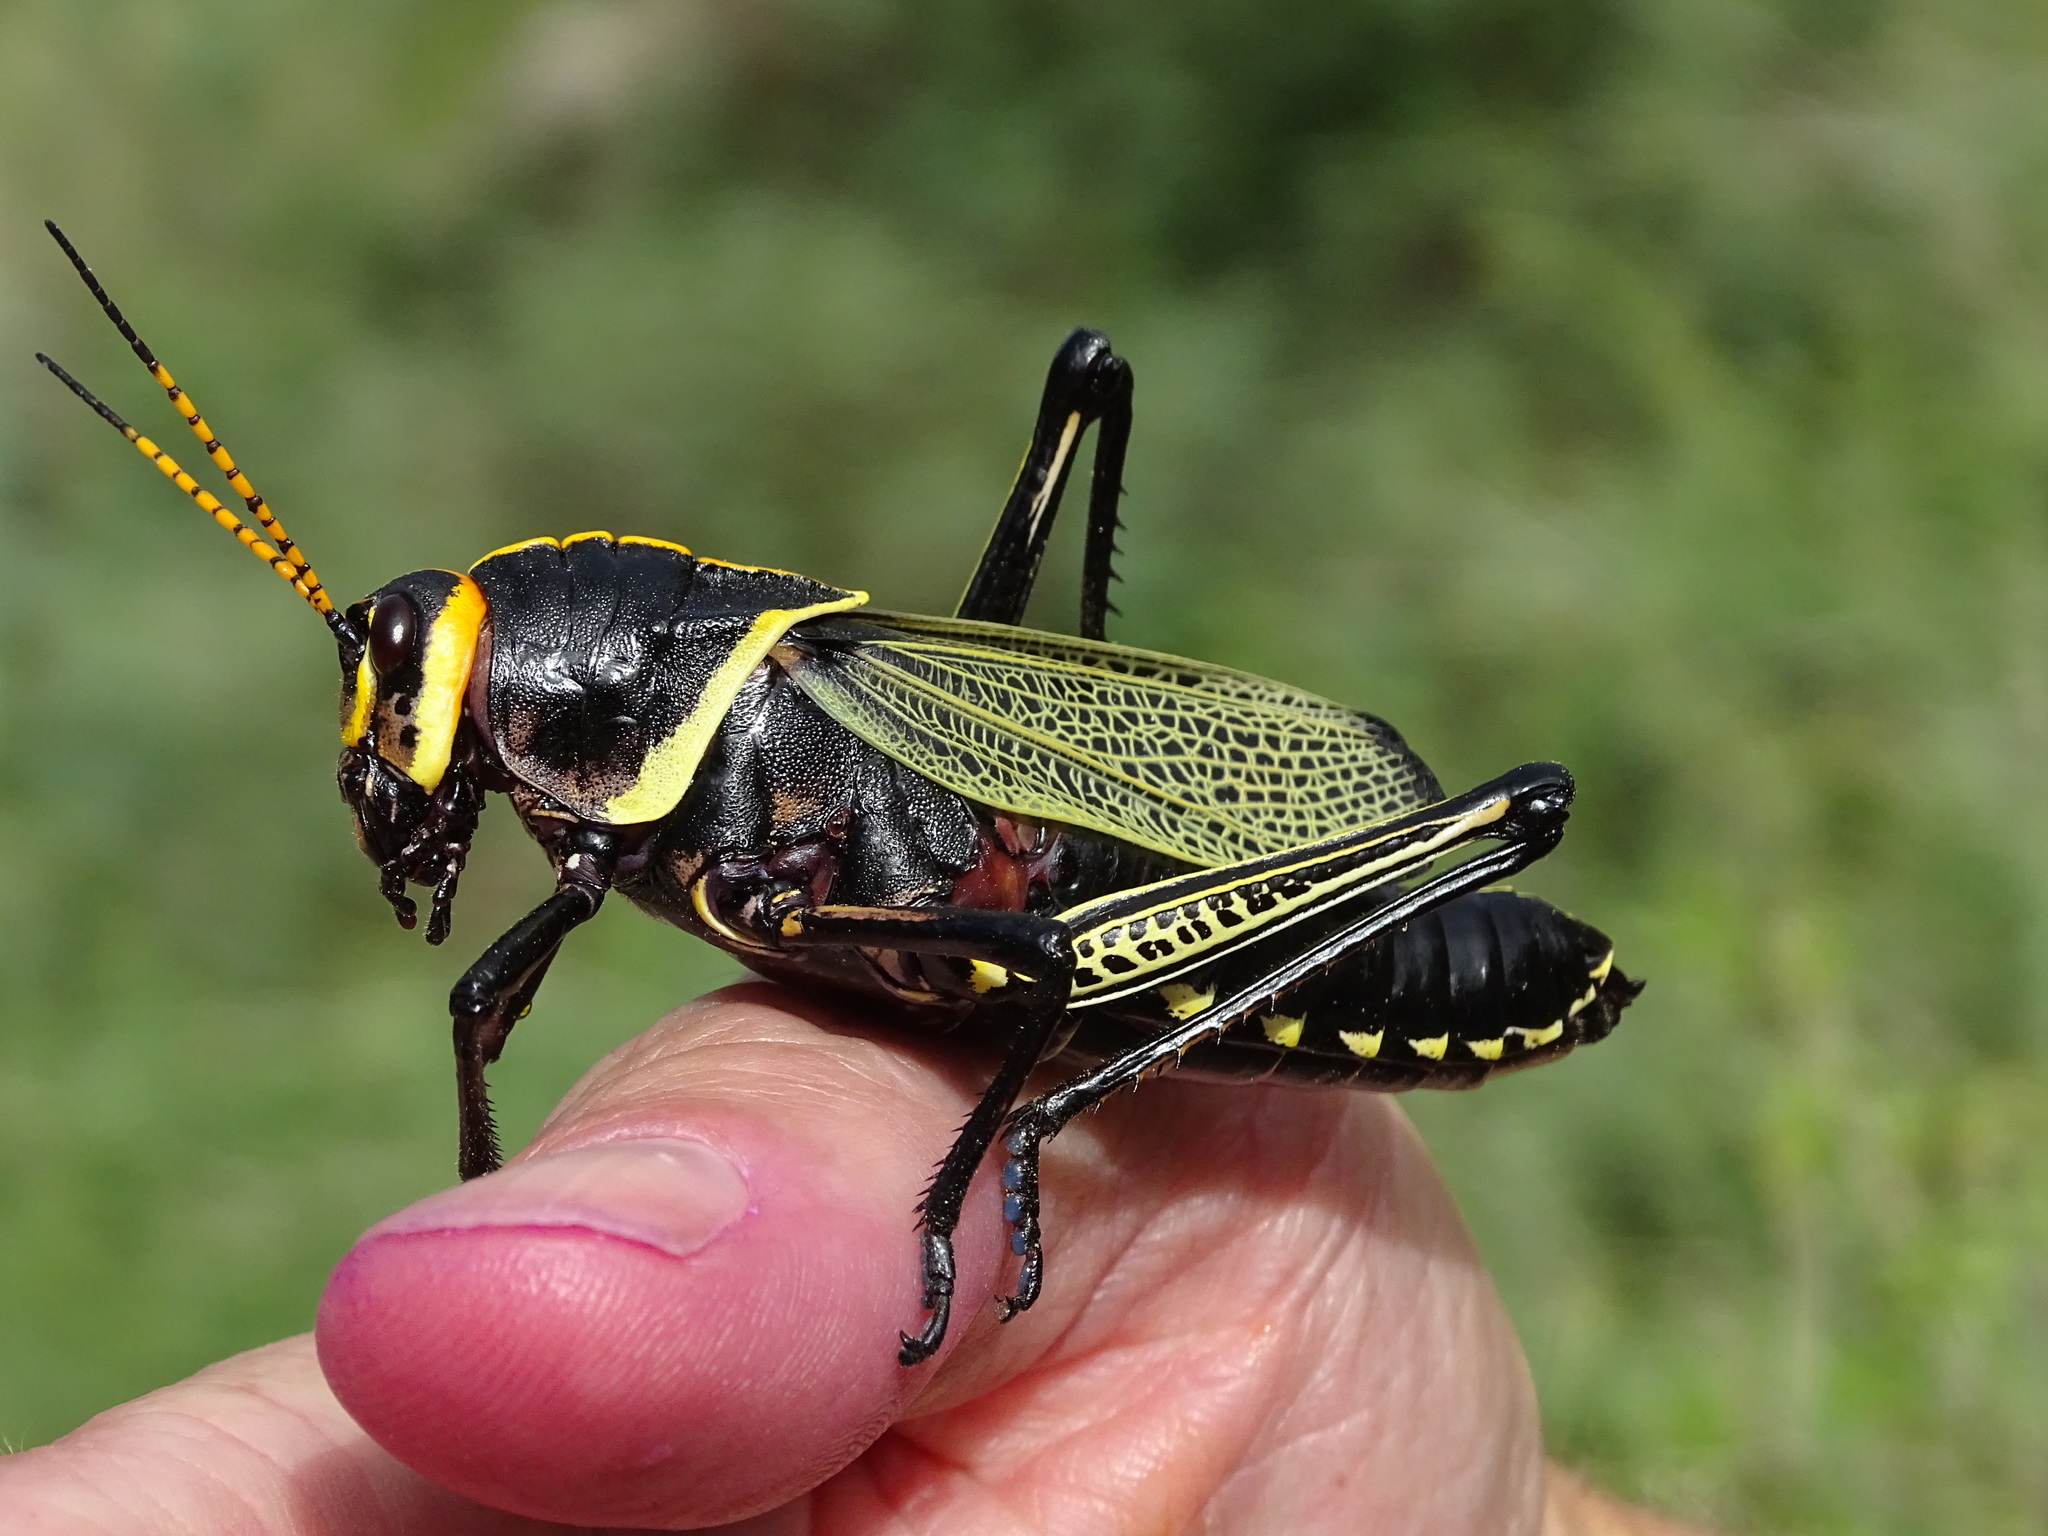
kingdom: Animalia
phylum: Arthropoda
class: Insecta
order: Orthoptera
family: Romaleidae
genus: Romalea
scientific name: Romalea
